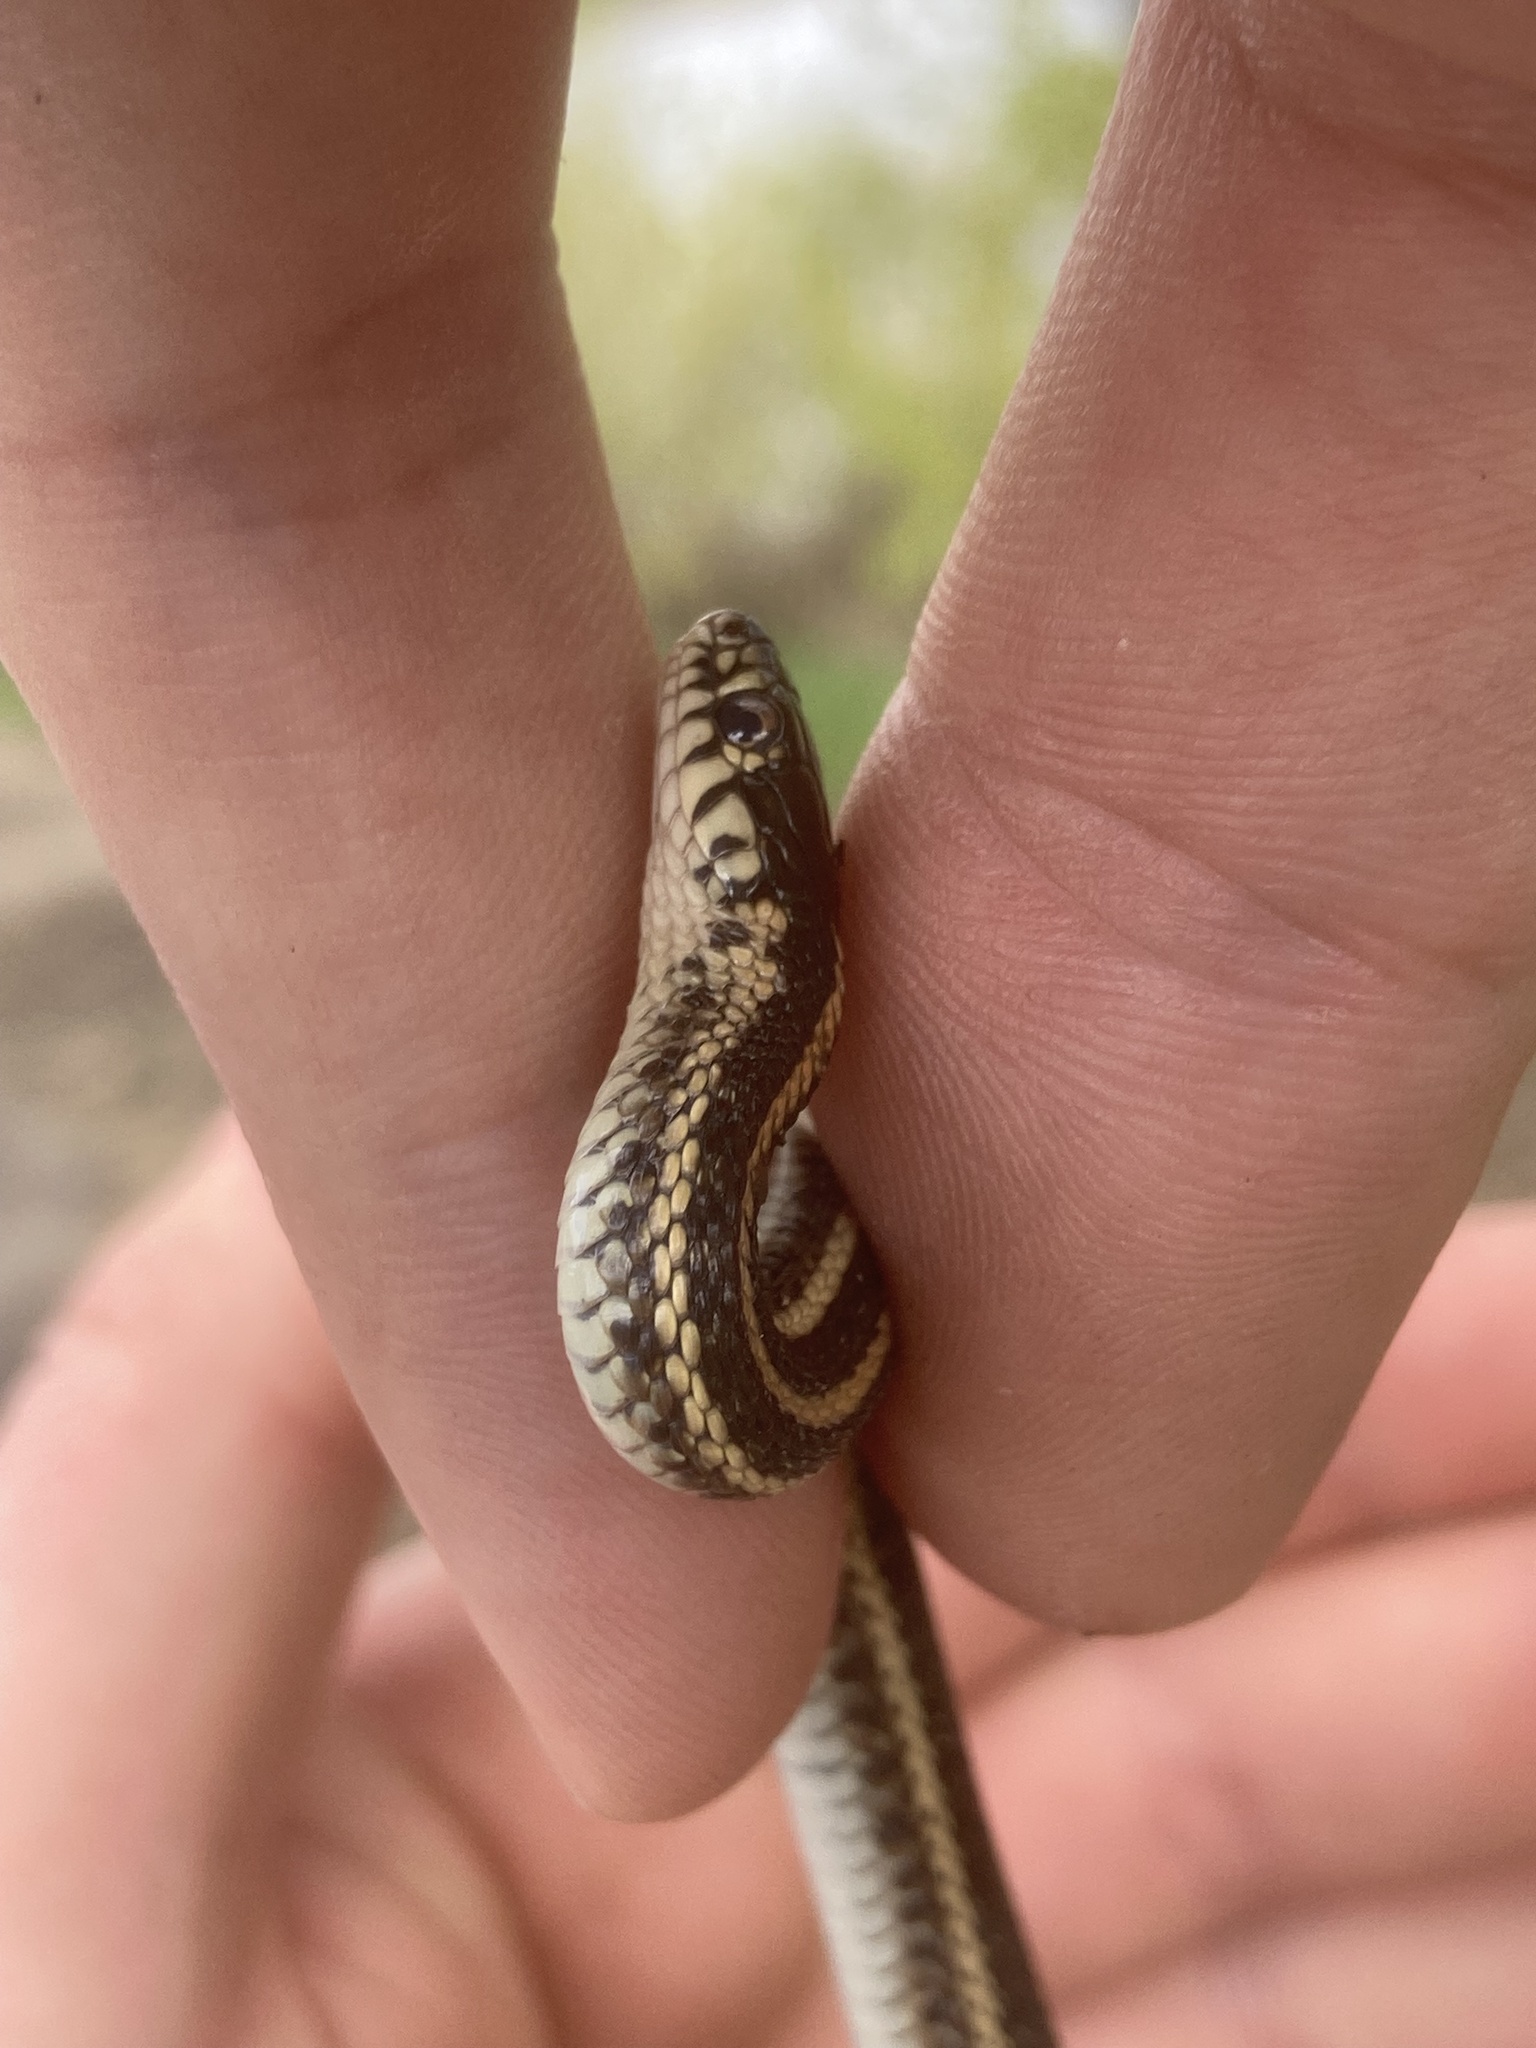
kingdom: Animalia
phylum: Chordata
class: Squamata
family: Colubridae
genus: Thamnophis
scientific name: Thamnophis radix
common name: Plains garter snake
